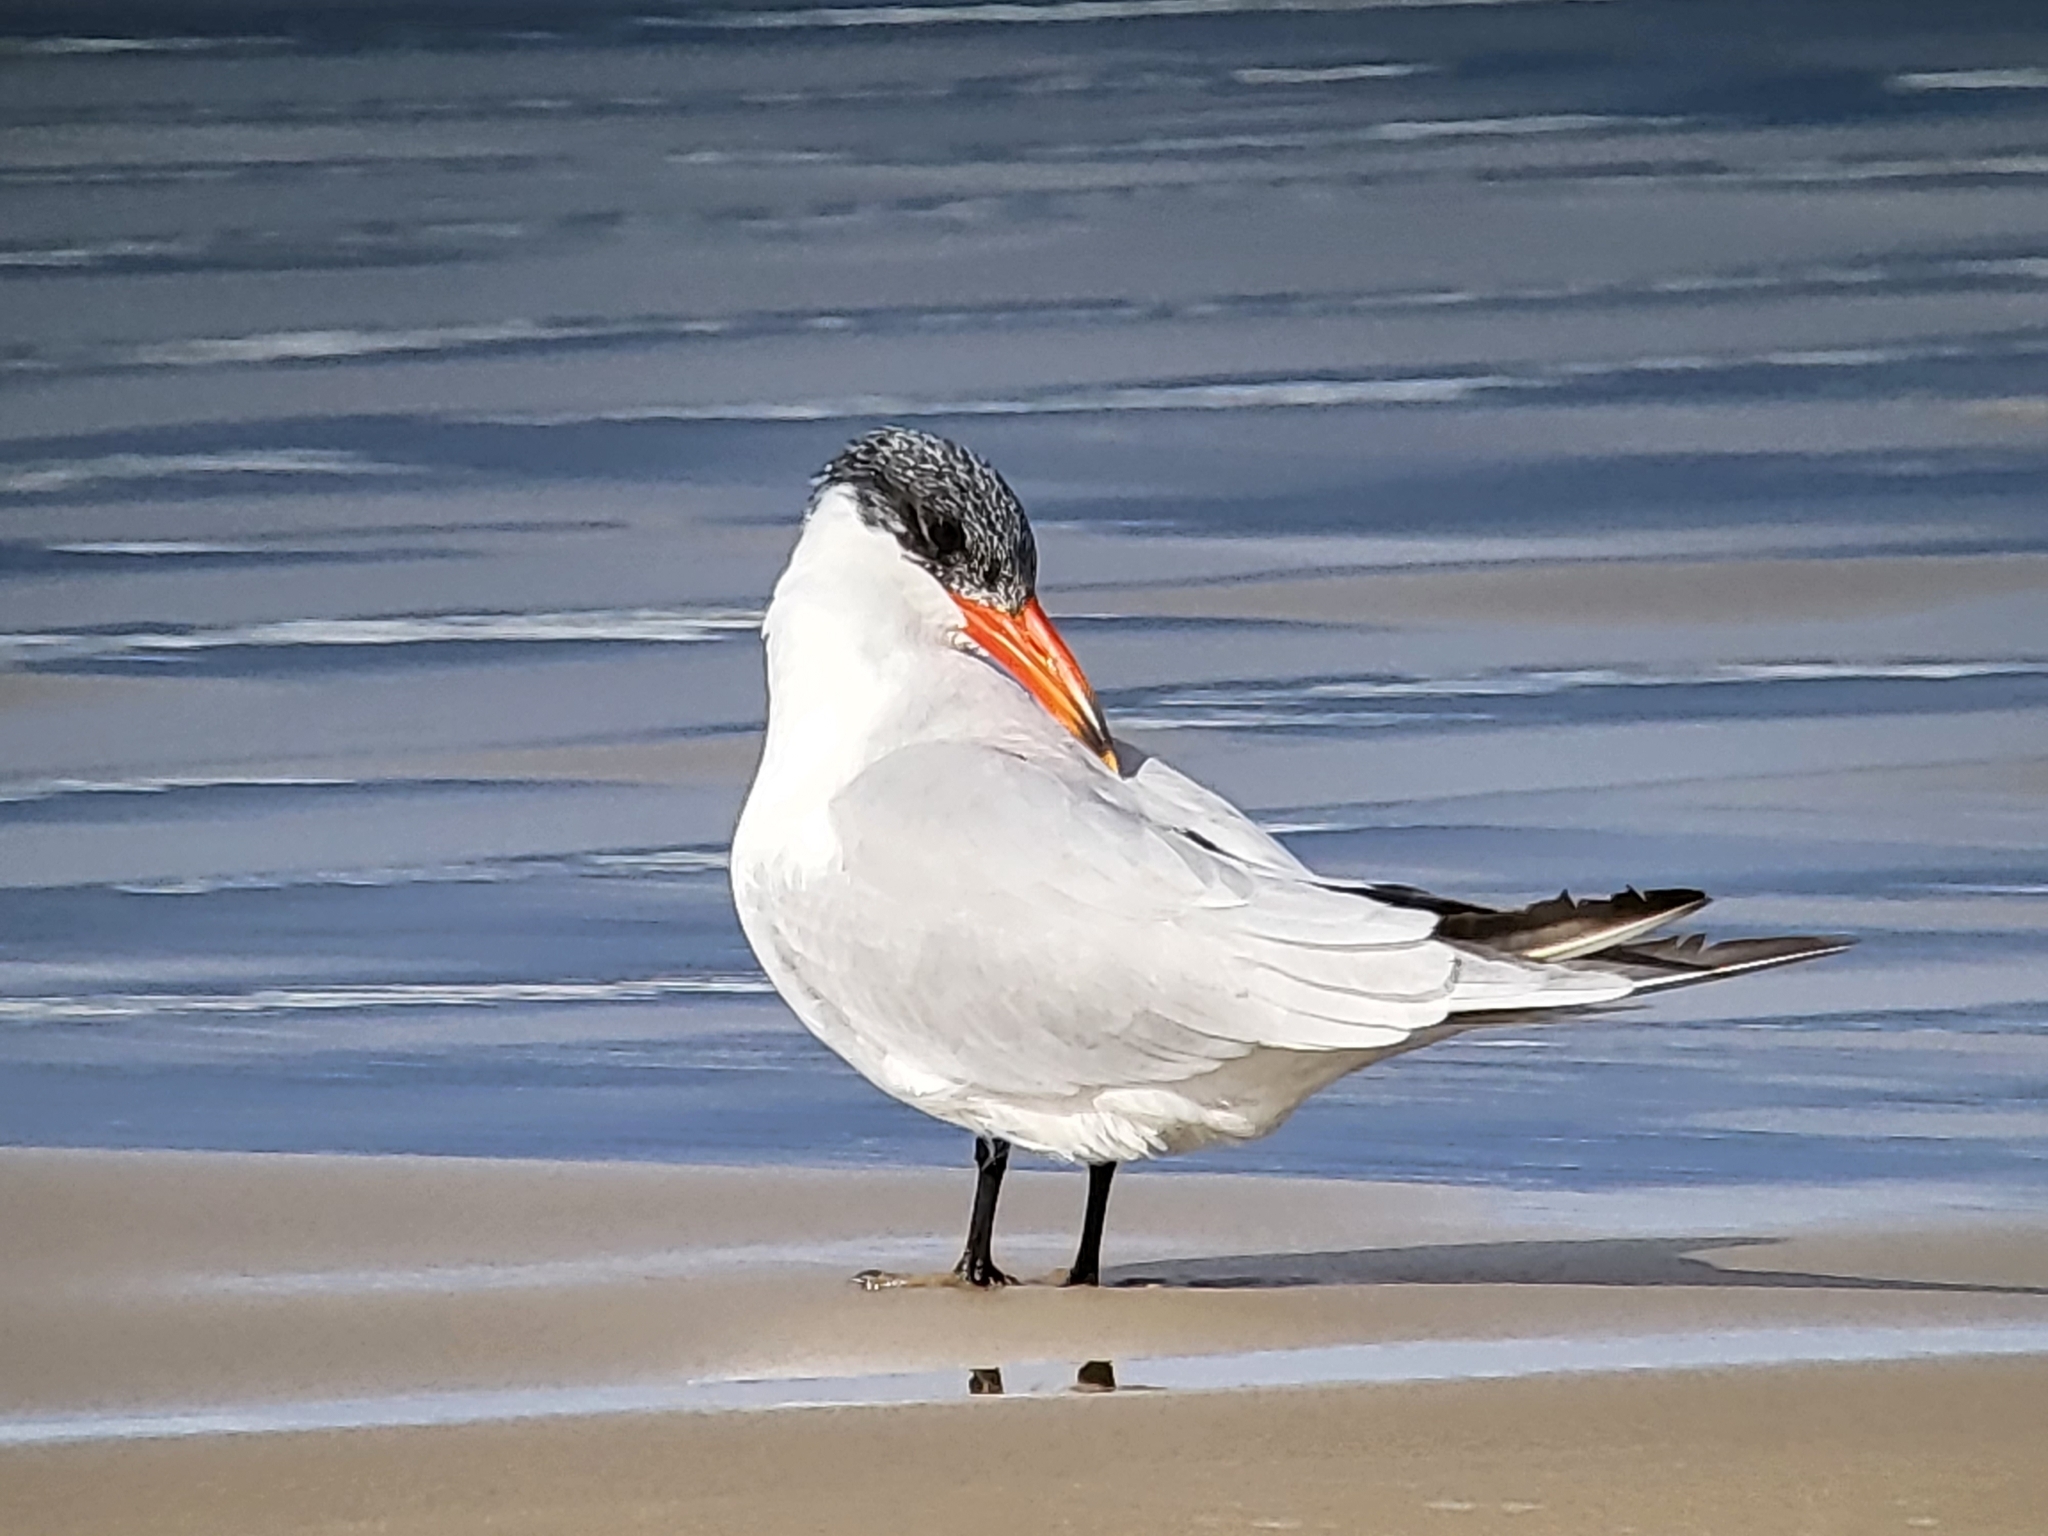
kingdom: Animalia
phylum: Chordata
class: Aves
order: Charadriiformes
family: Laridae
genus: Hydroprogne
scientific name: Hydroprogne caspia
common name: Caspian tern
